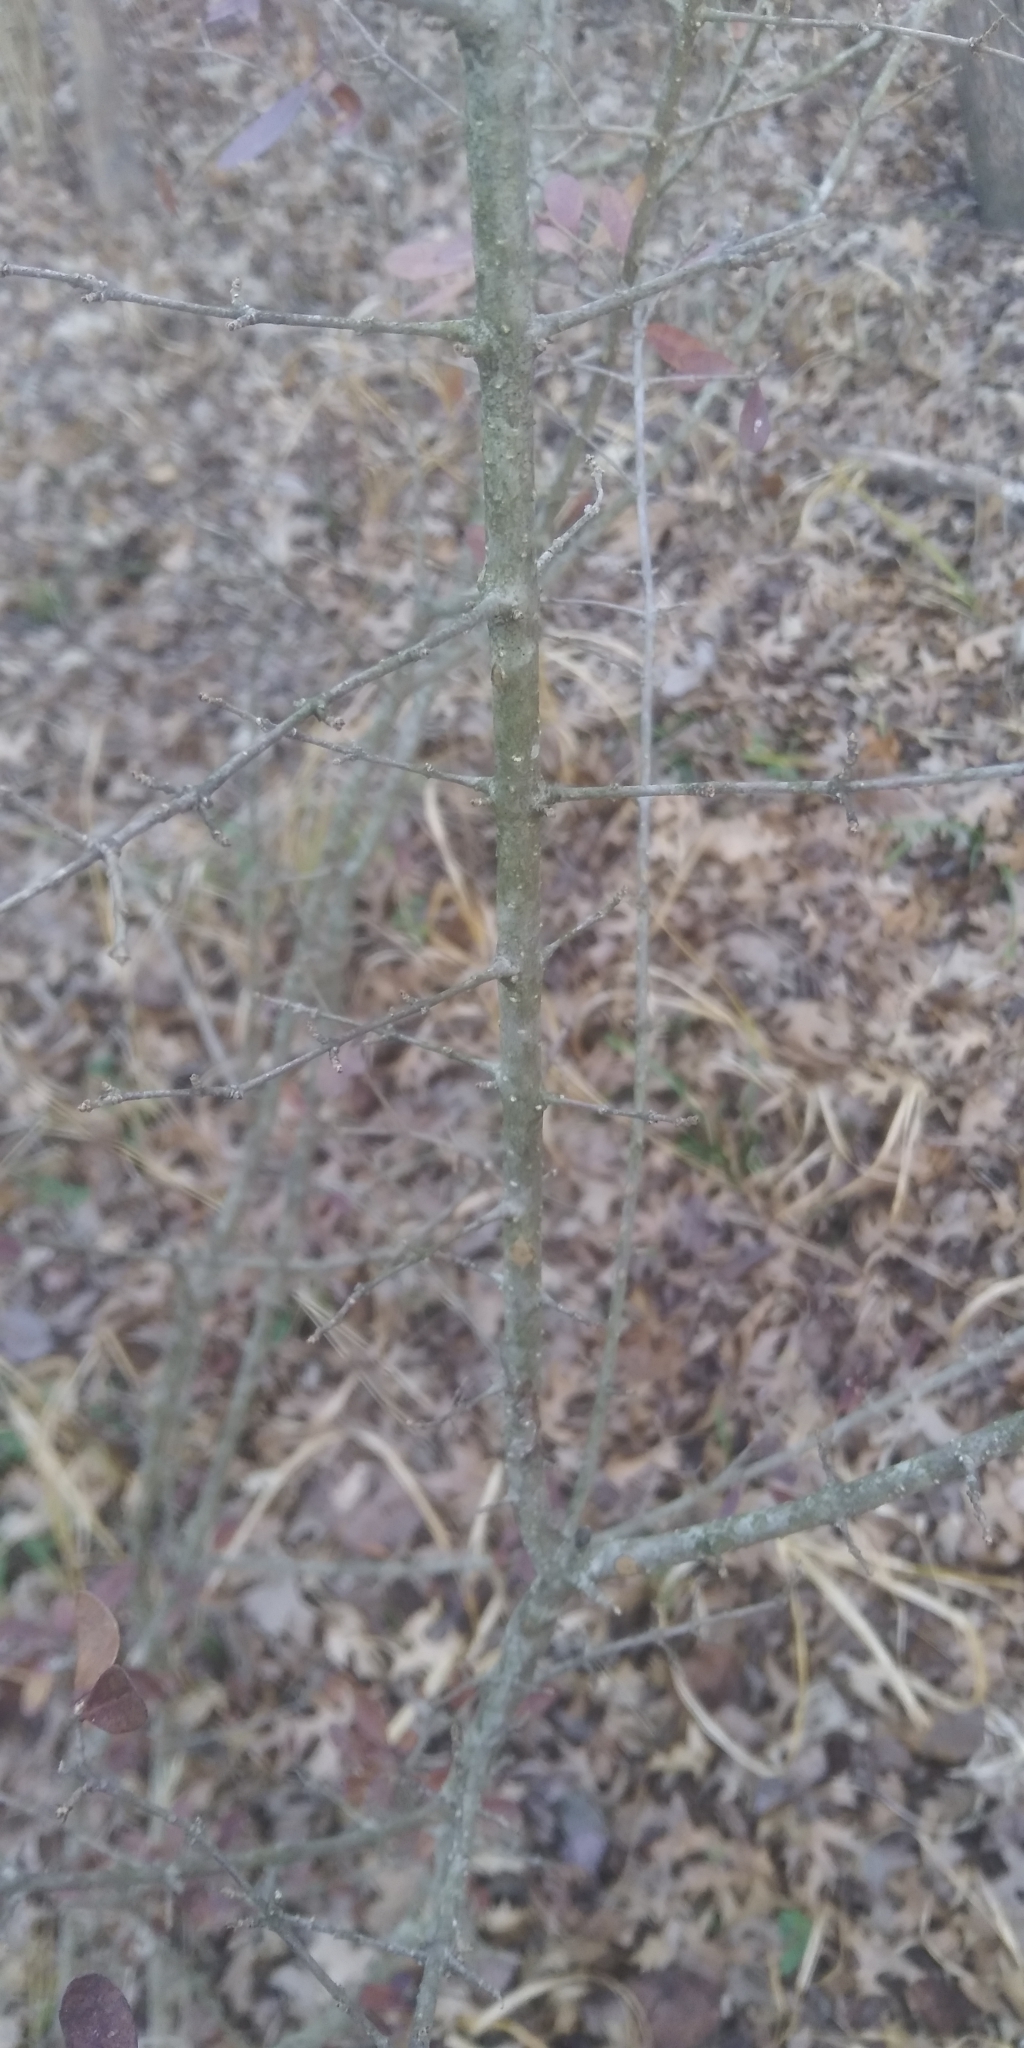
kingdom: Plantae
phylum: Tracheophyta
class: Magnoliopsida
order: Lamiales
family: Oleaceae
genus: Ligustrum
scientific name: Ligustrum quihoui
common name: Waxyleaf privet
